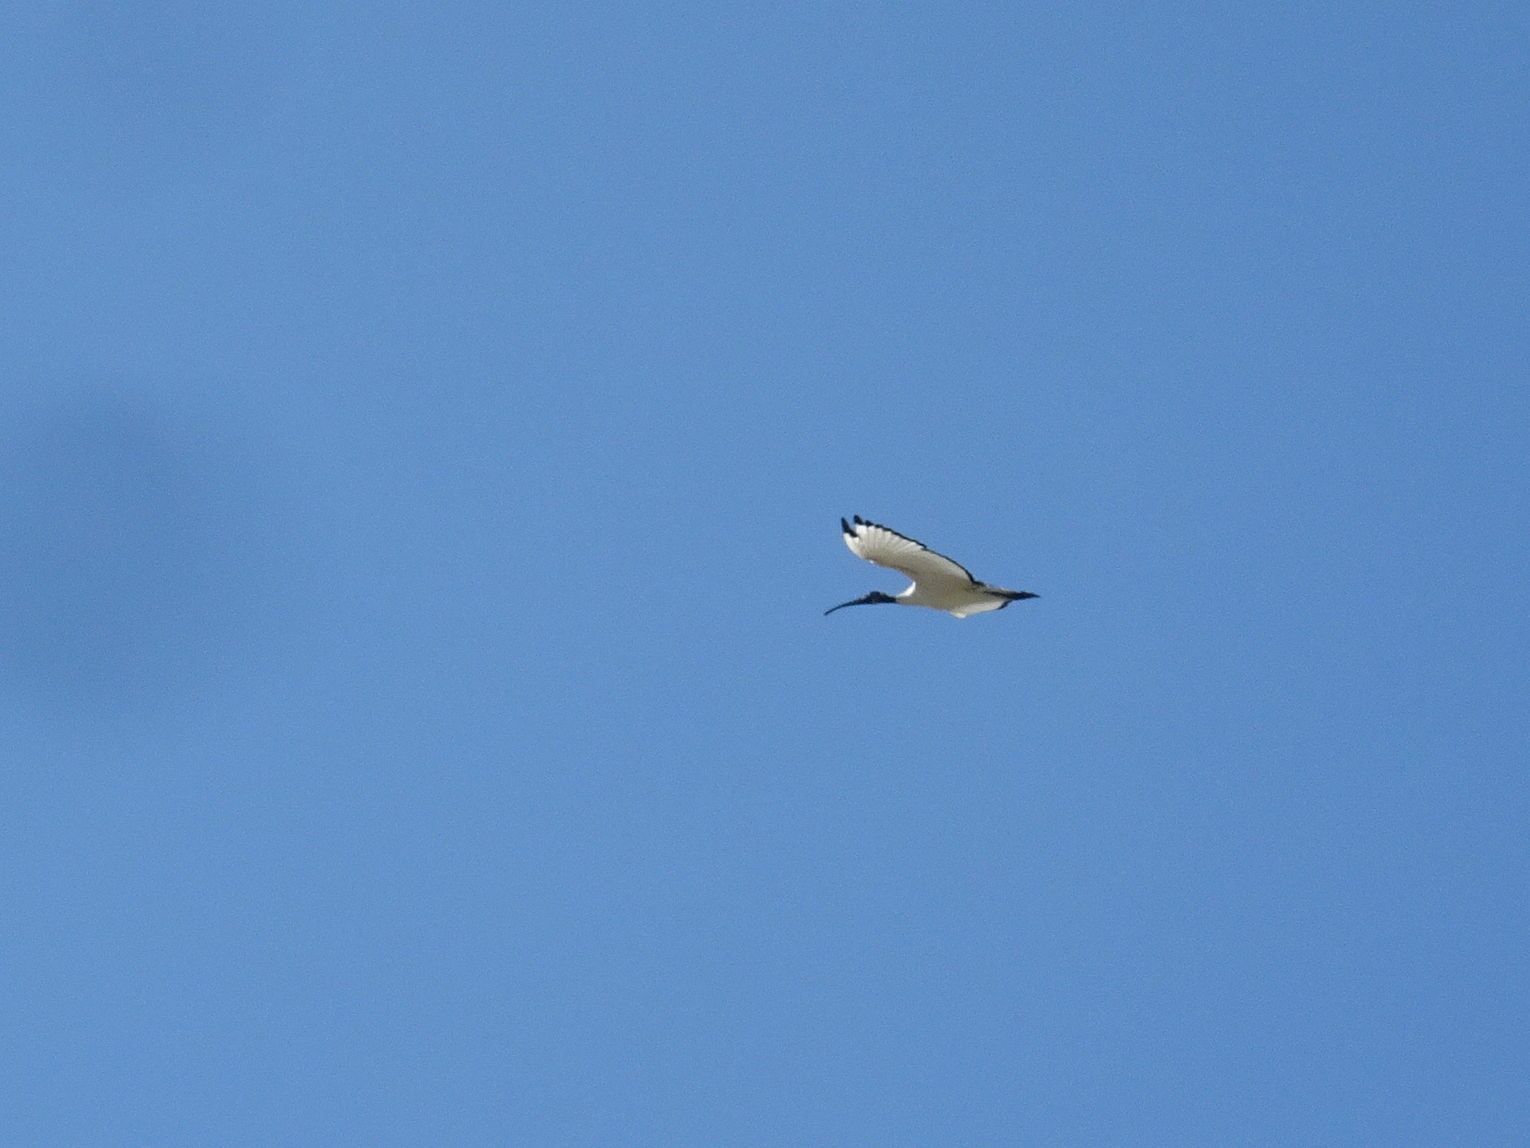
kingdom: Animalia
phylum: Chordata
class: Aves
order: Pelecaniformes
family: Threskiornithidae
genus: Threskiornis
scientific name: Threskiornis aethiopicus
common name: Sacred ibis
